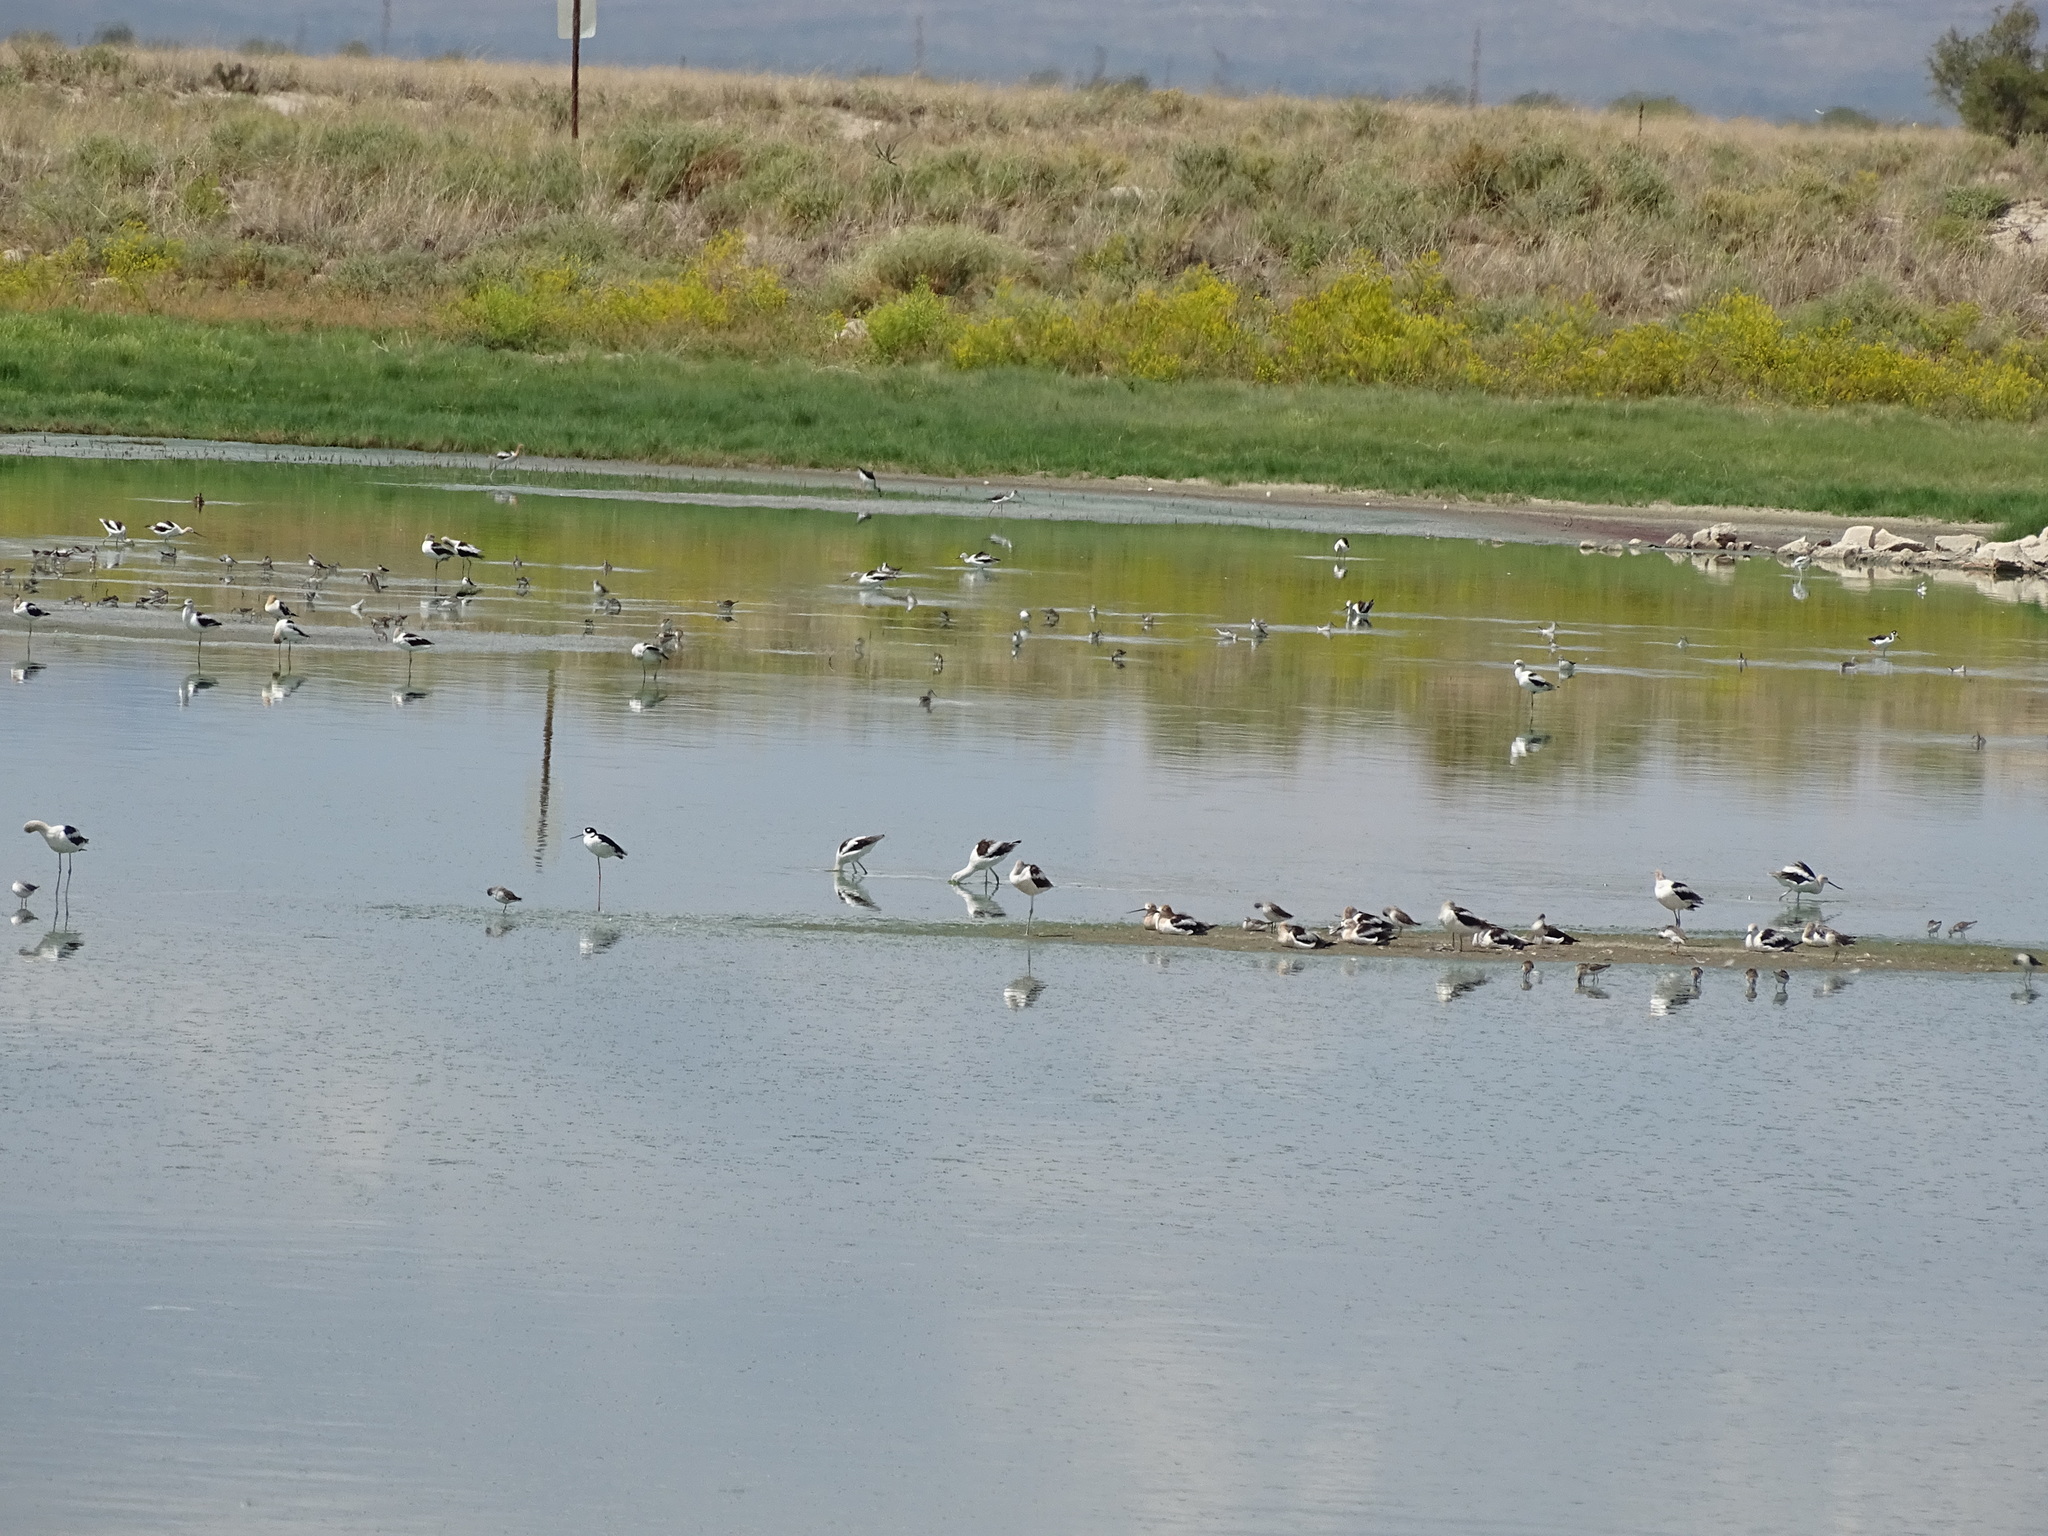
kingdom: Animalia
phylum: Chordata
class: Aves
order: Charadriiformes
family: Recurvirostridae
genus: Recurvirostra
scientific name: Recurvirostra americana
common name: American avocet
